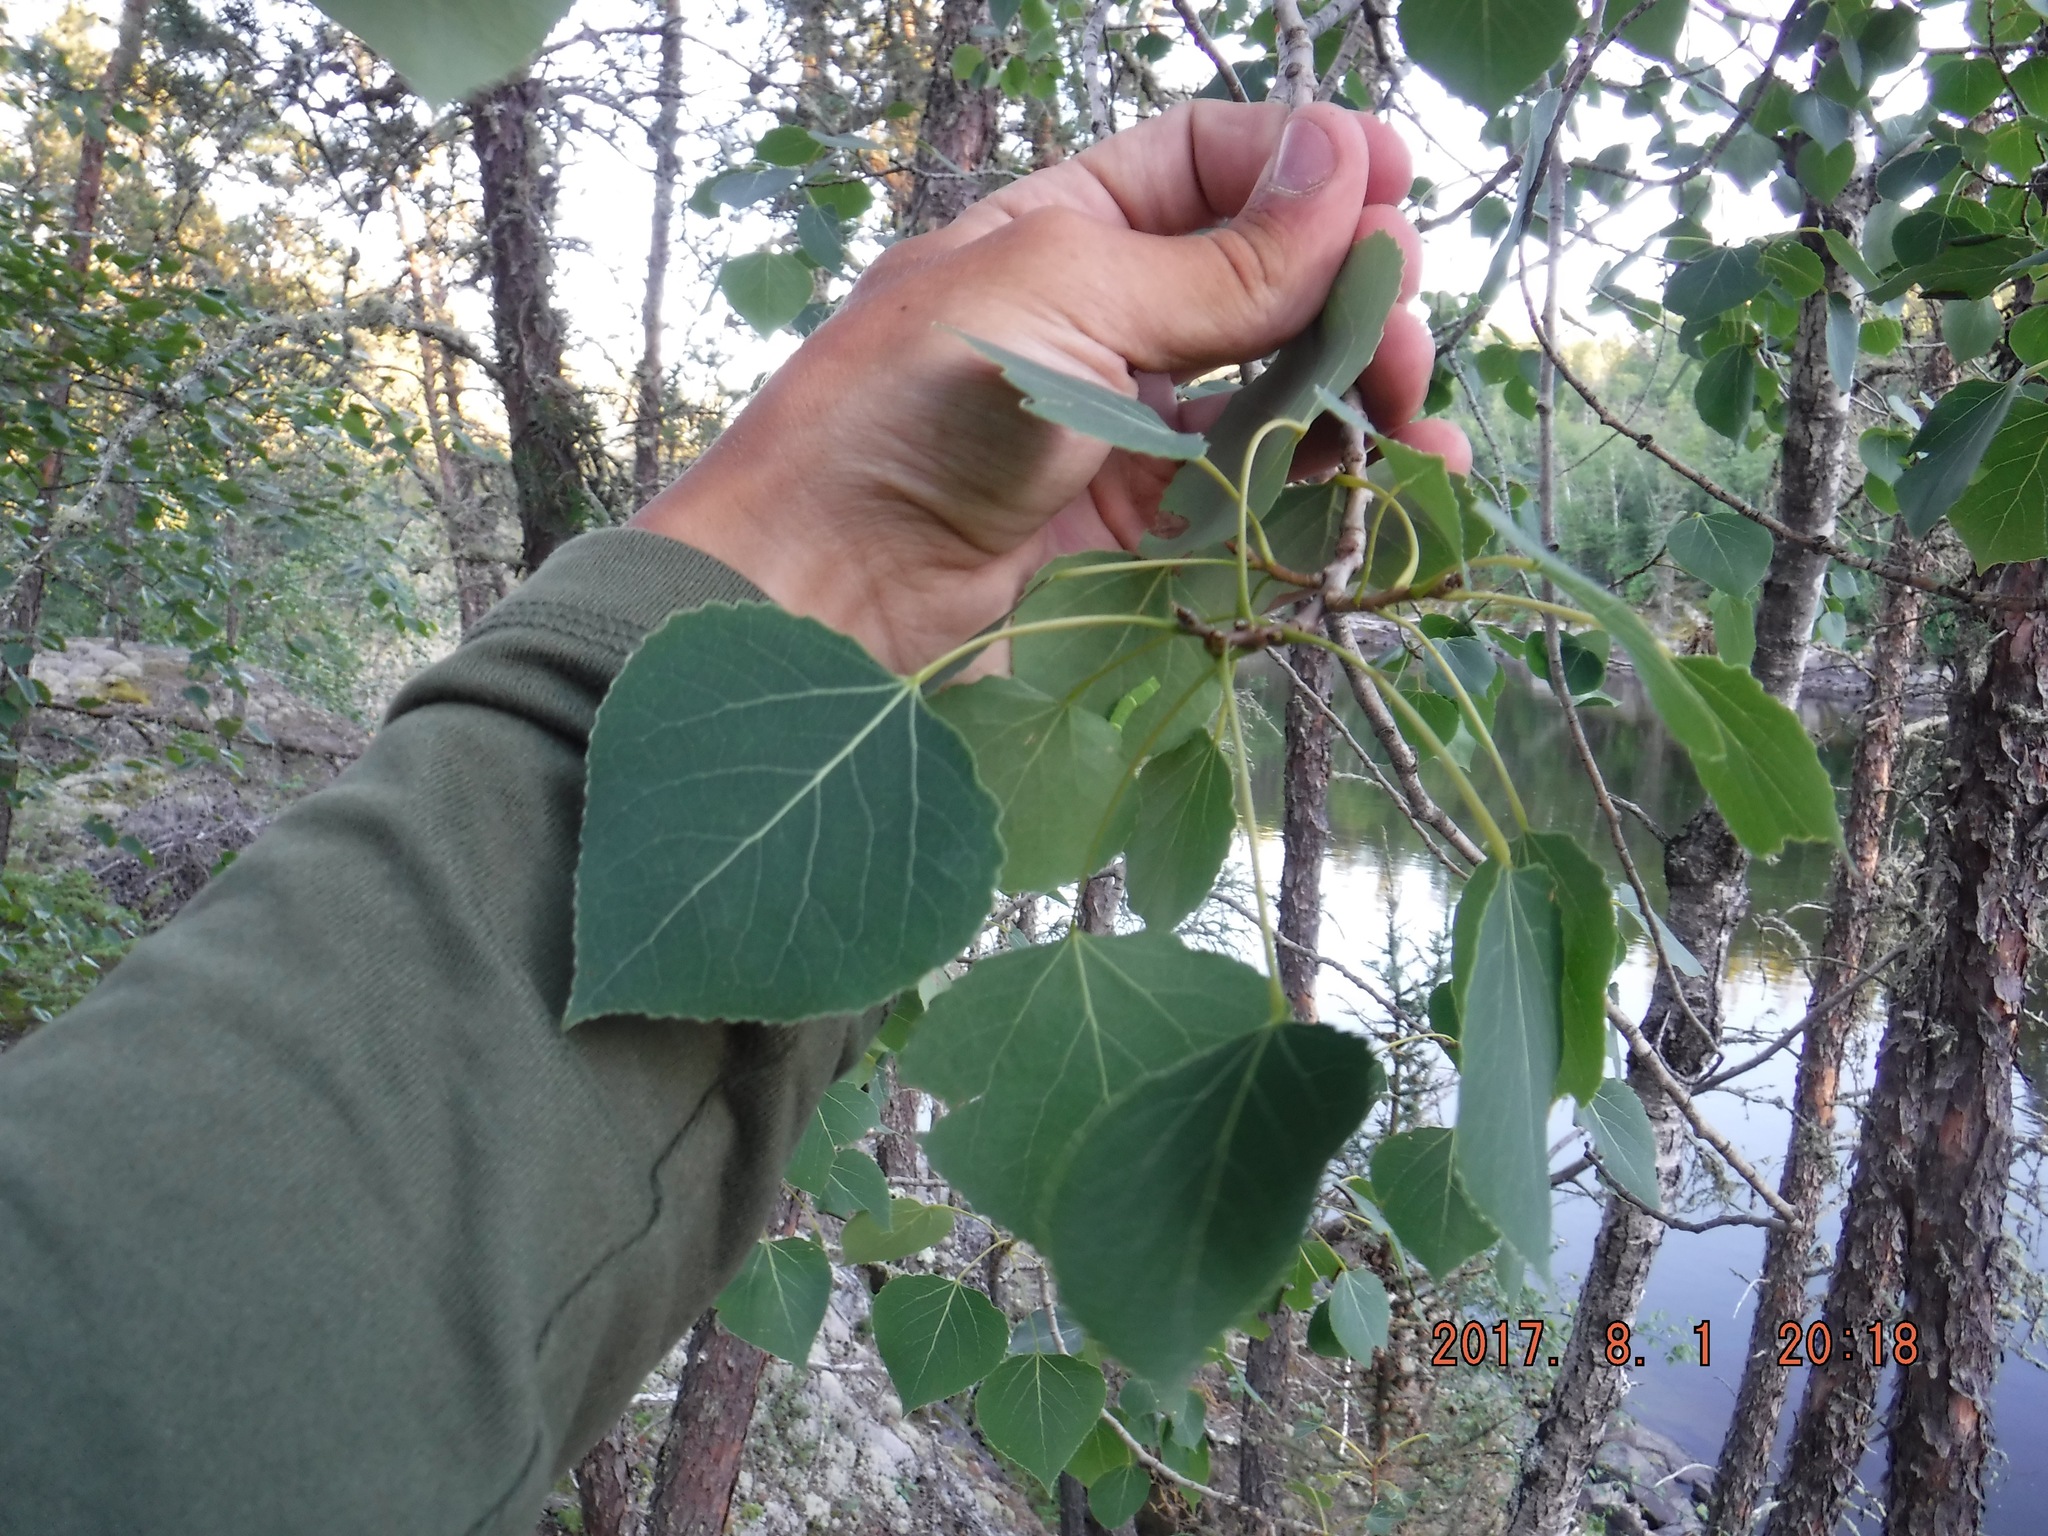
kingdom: Plantae
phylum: Tracheophyta
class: Magnoliopsida
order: Malpighiales
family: Salicaceae
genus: Populus
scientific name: Populus tremuloides
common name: Quaking aspen
